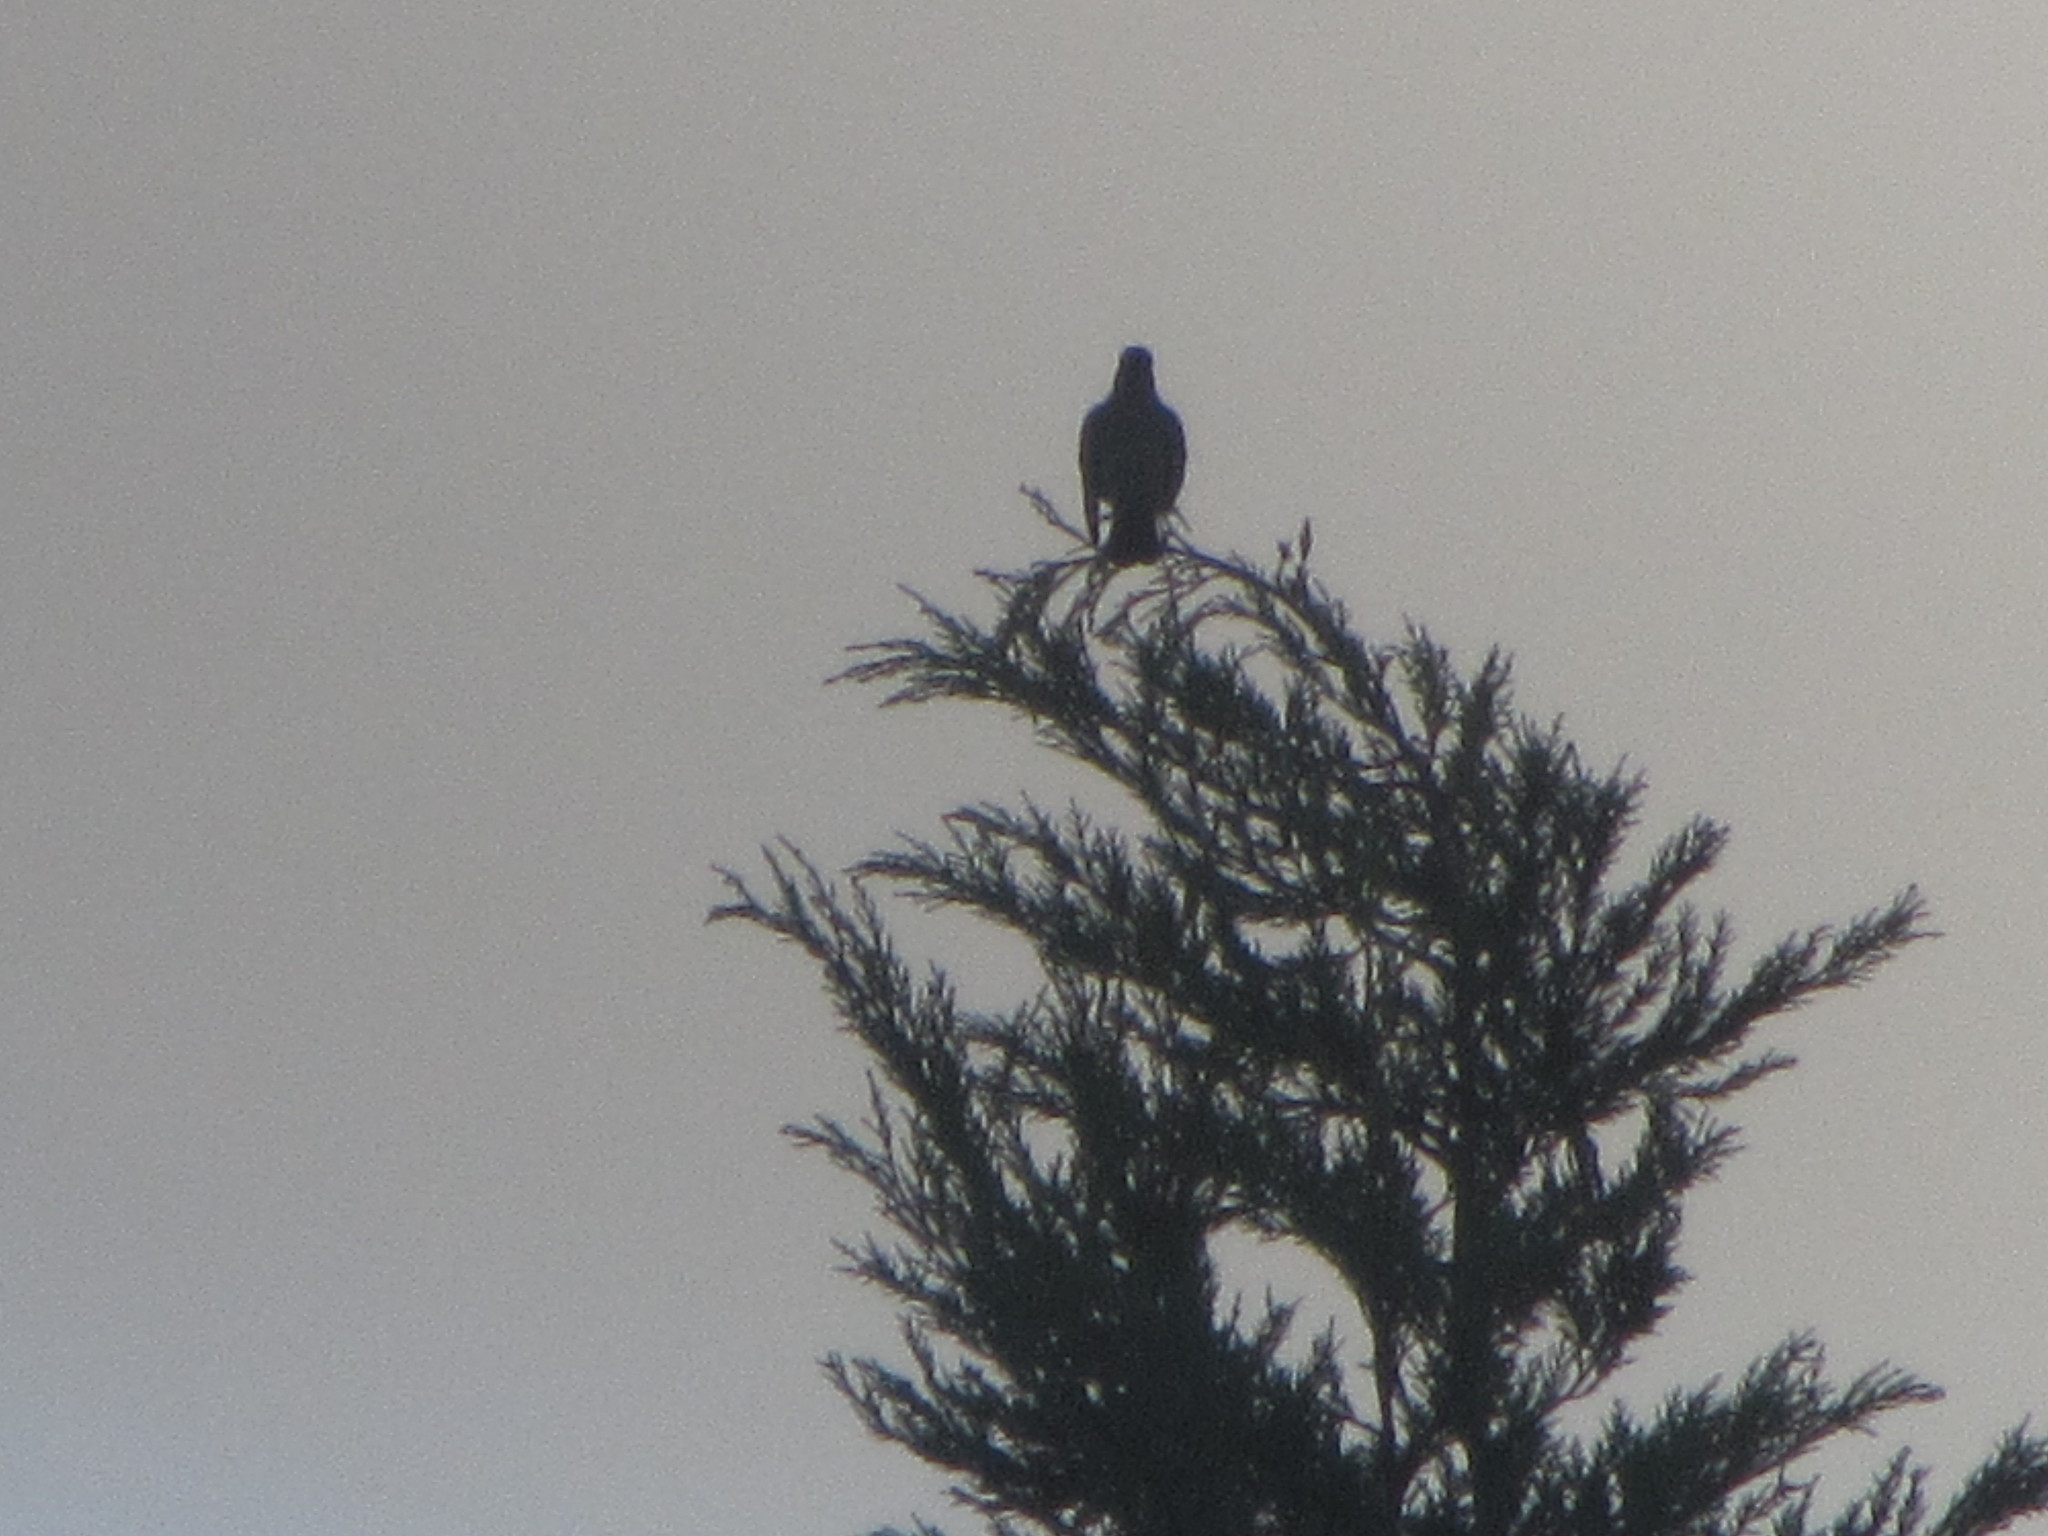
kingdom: Animalia
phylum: Chordata
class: Aves
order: Passeriformes
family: Turdidae
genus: Turdus
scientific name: Turdus migratorius
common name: American robin
